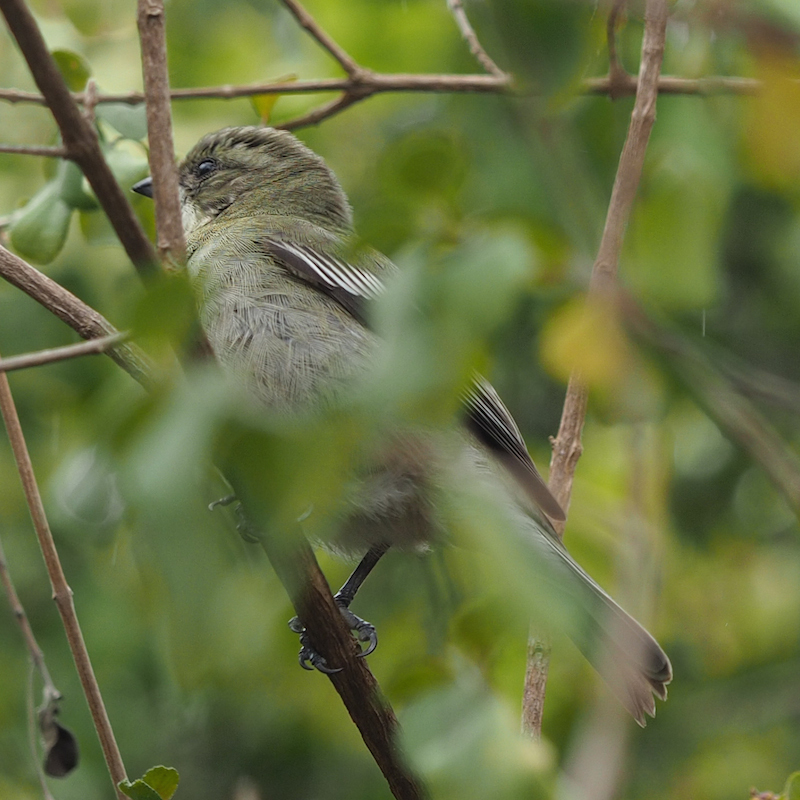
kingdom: Animalia
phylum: Chordata
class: Aves
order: Passeriformes
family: Spindalidae
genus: Spindalis
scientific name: Spindalis zena
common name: Western spindalis
